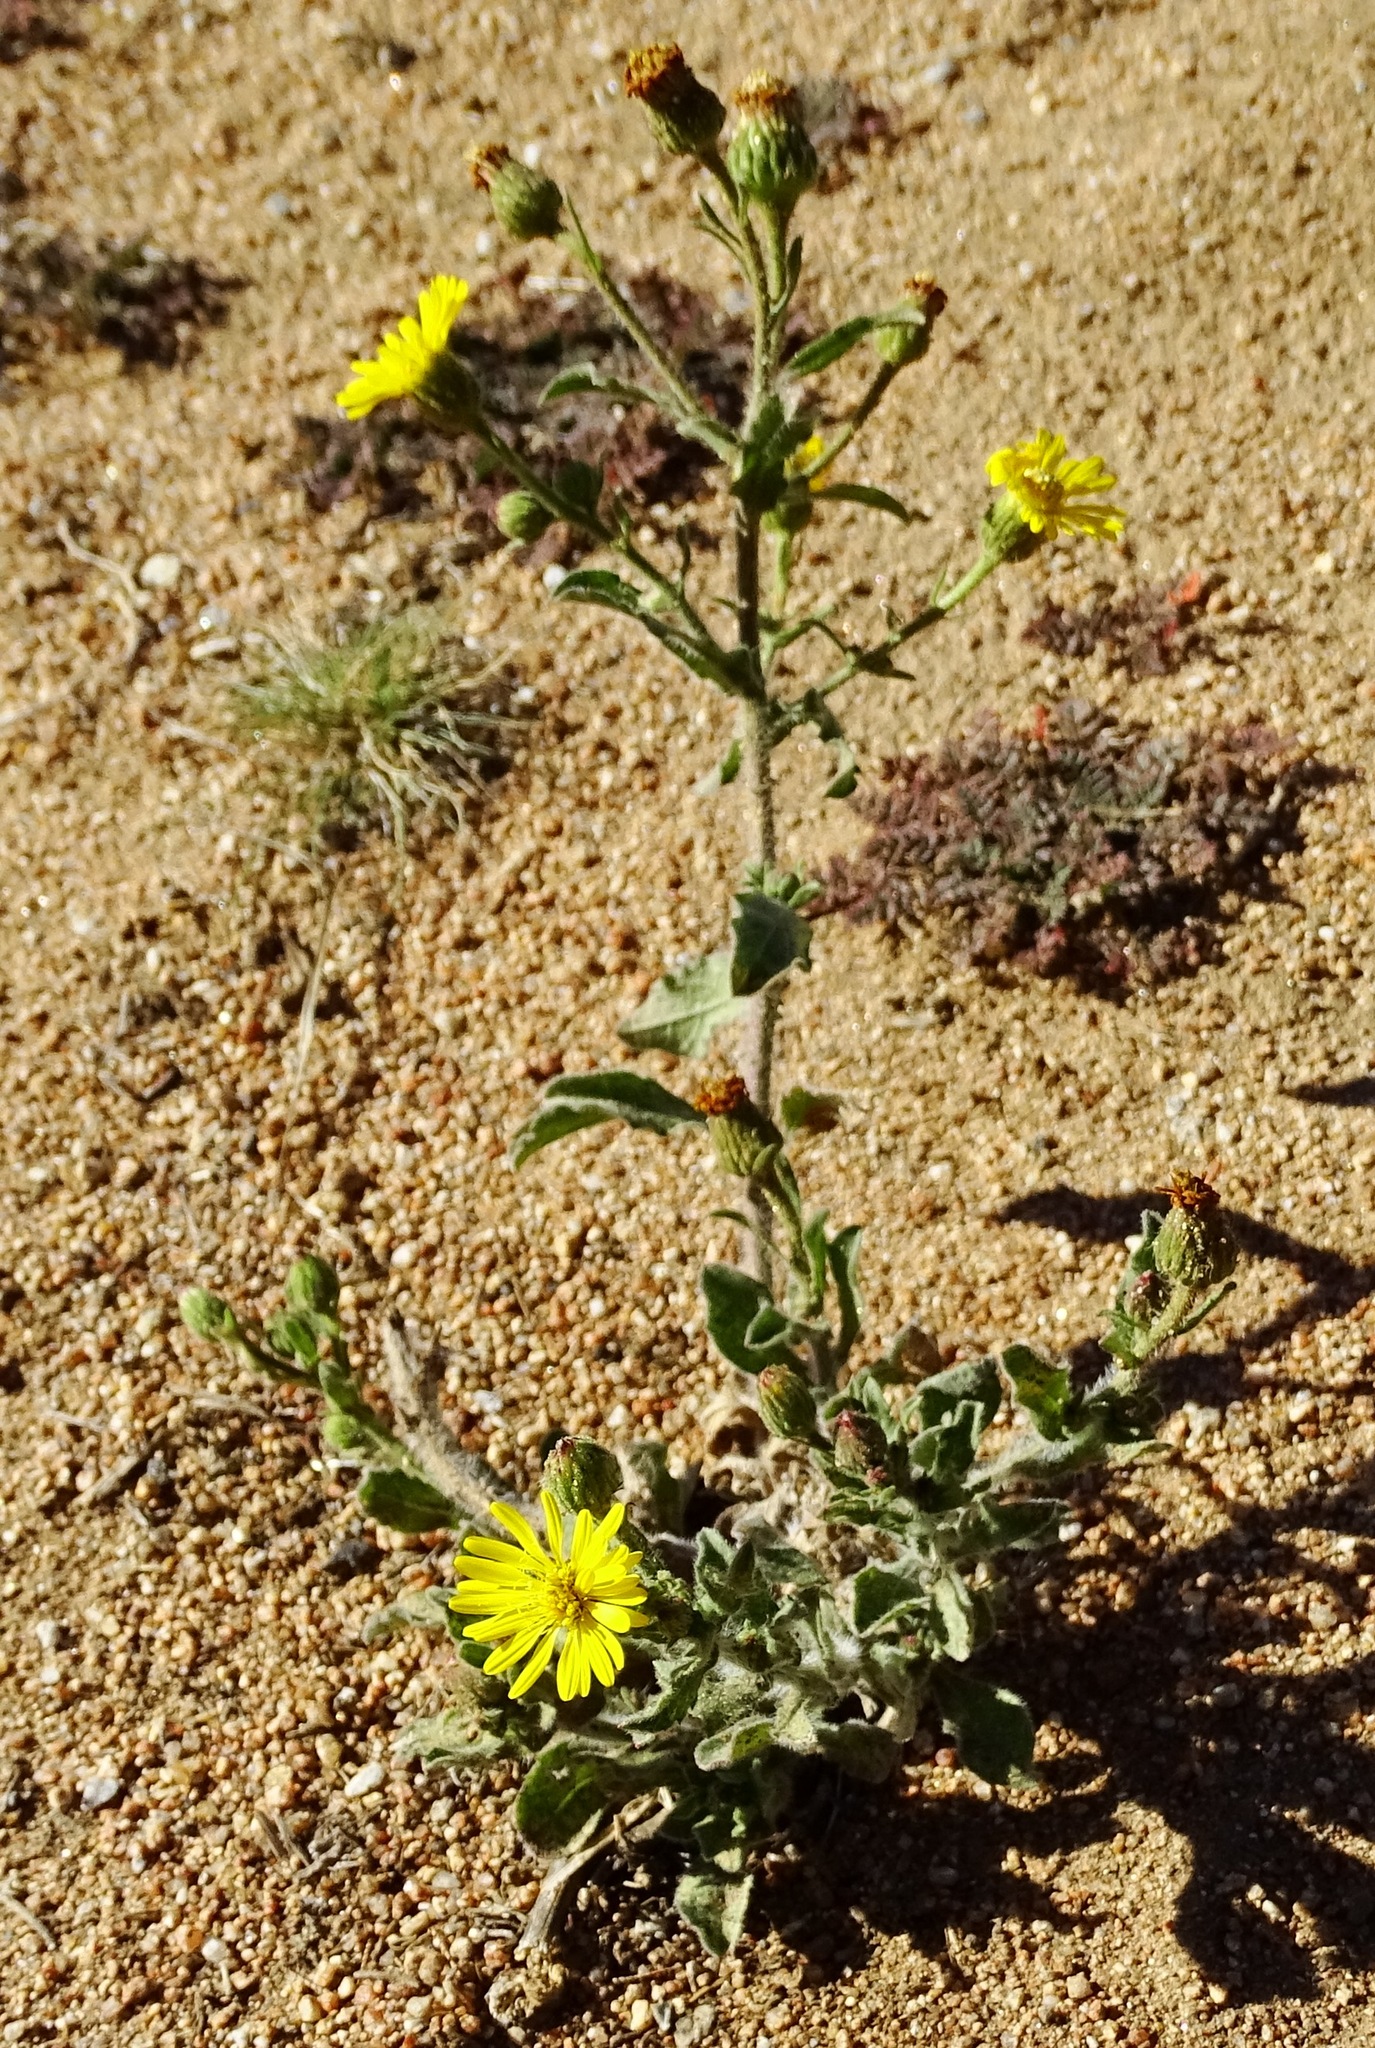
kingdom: Plantae
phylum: Tracheophyta
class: Magnoliopsida
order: Asterales
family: Asteraceae
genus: Heterotheca
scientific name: Heterotheca grandiflora
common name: Telegraphweed
